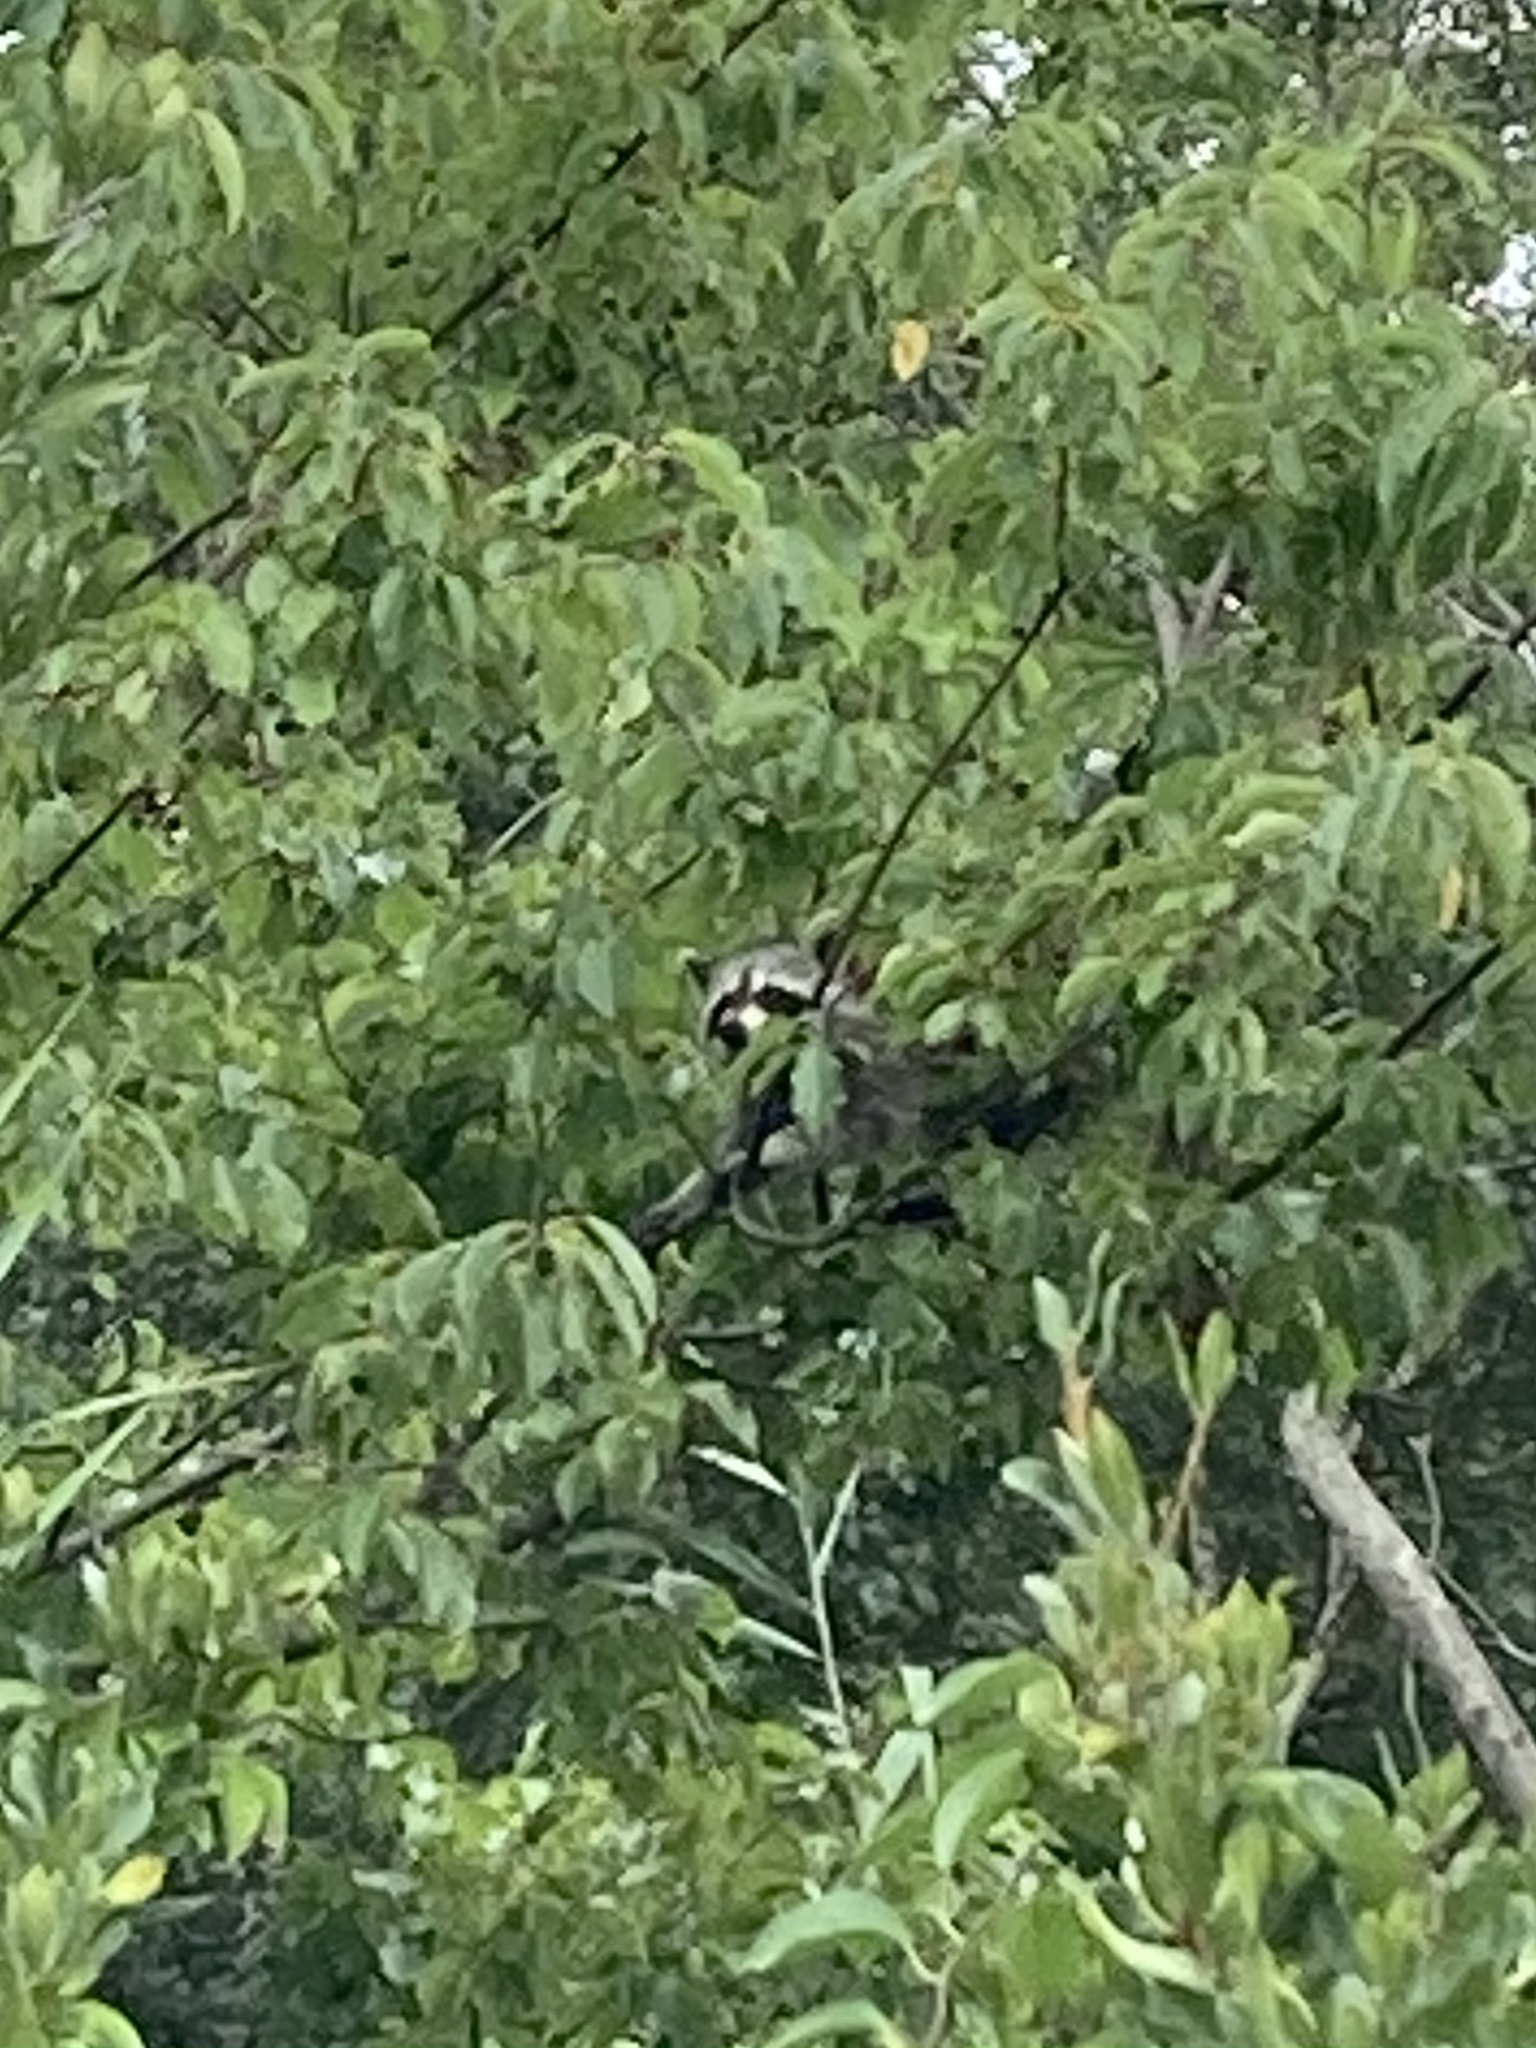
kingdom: Animalia
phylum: Chordata
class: Mammalia
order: Carnivora
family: Procyonidae
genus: Procyon
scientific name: Procyon lotor
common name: Raccoon
